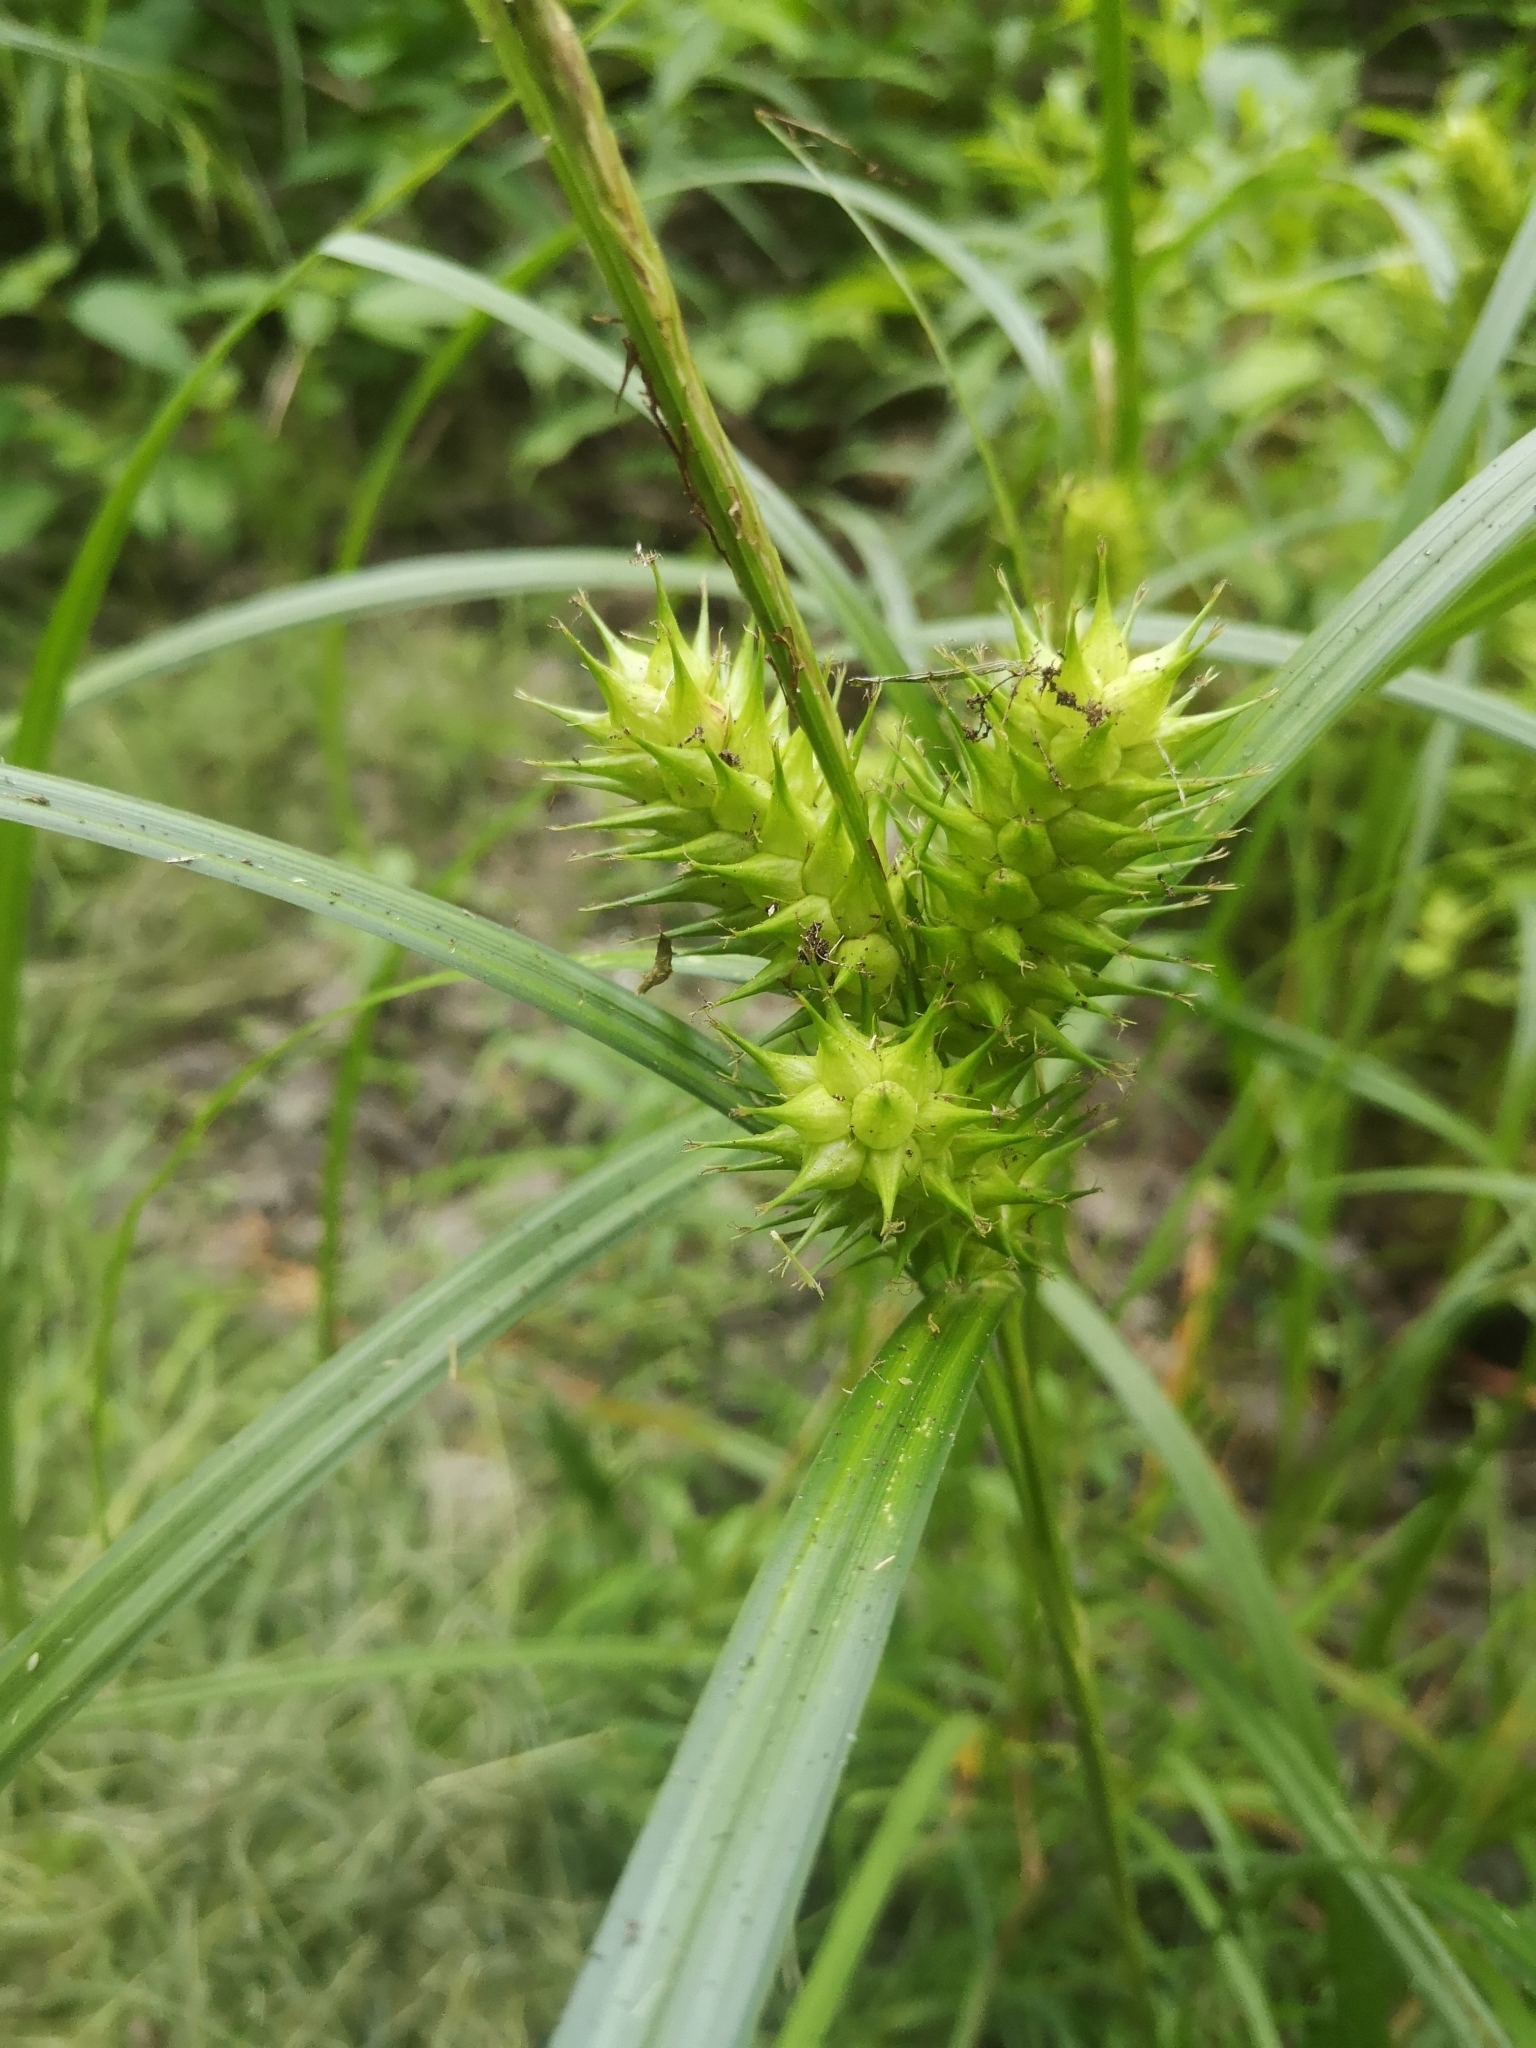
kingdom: Plantae
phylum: Tracheophyta
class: Liliopsida
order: Poales
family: Cyperaceae
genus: Carex
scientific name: Carex lupulina
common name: Hop sedge
